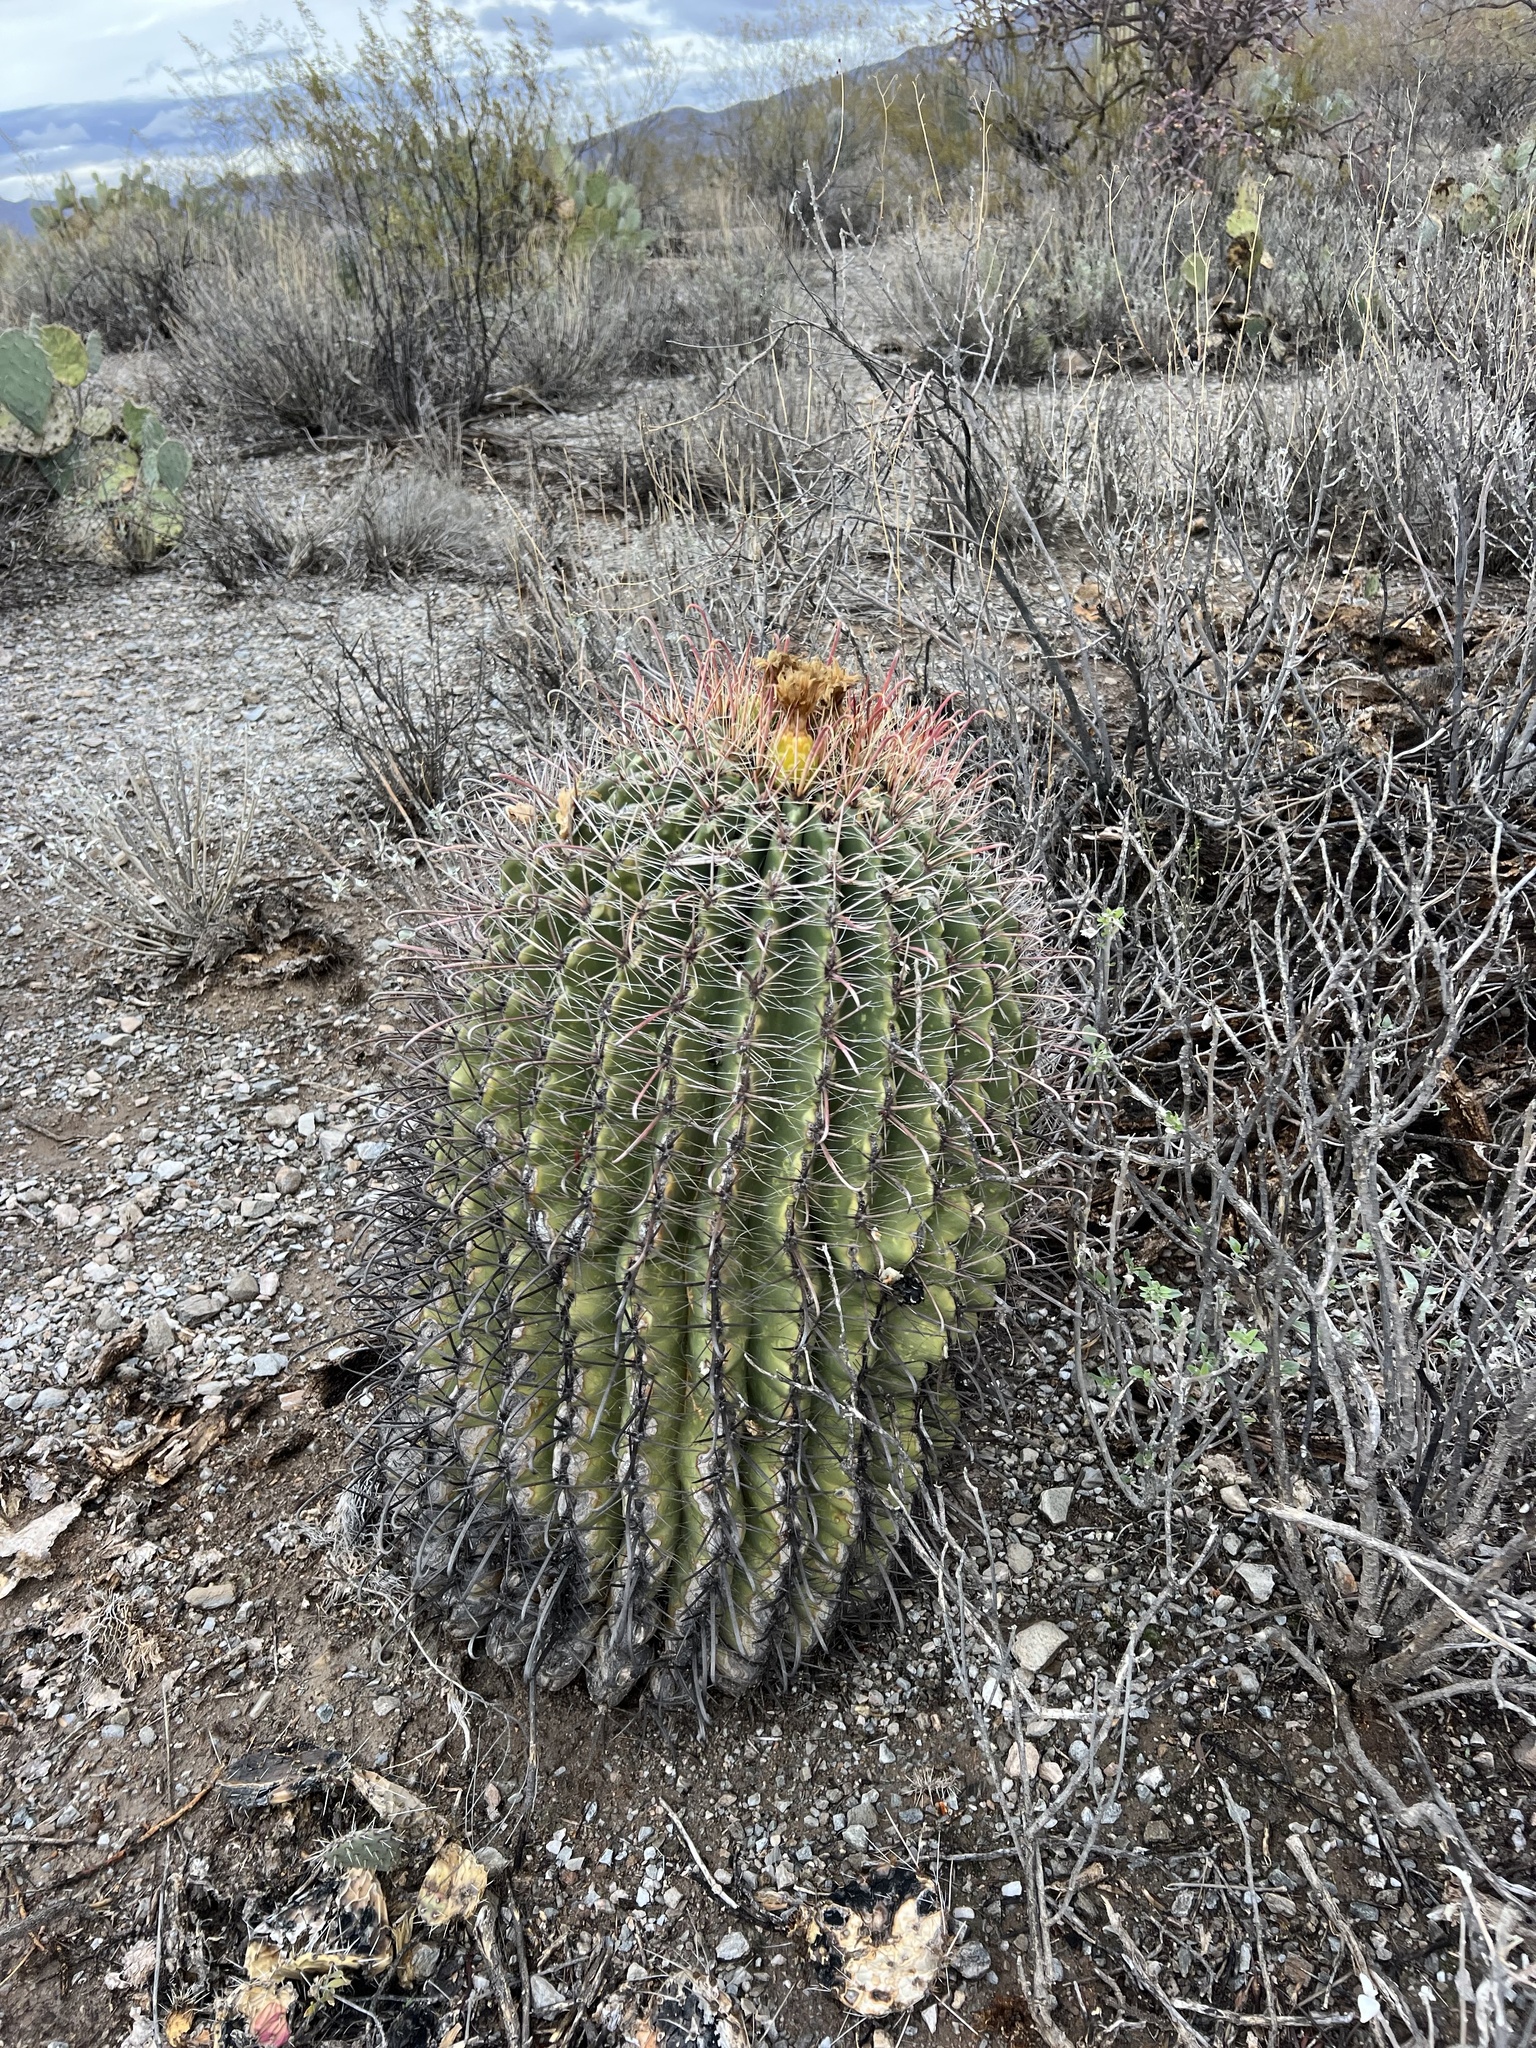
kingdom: Plantae
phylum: Tracheophyta
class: Magnoliopsida
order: Caryophyllales
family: Cactaceae
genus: Ferocactus
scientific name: Ferocactus wislizeni
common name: Candy barrel cactus
